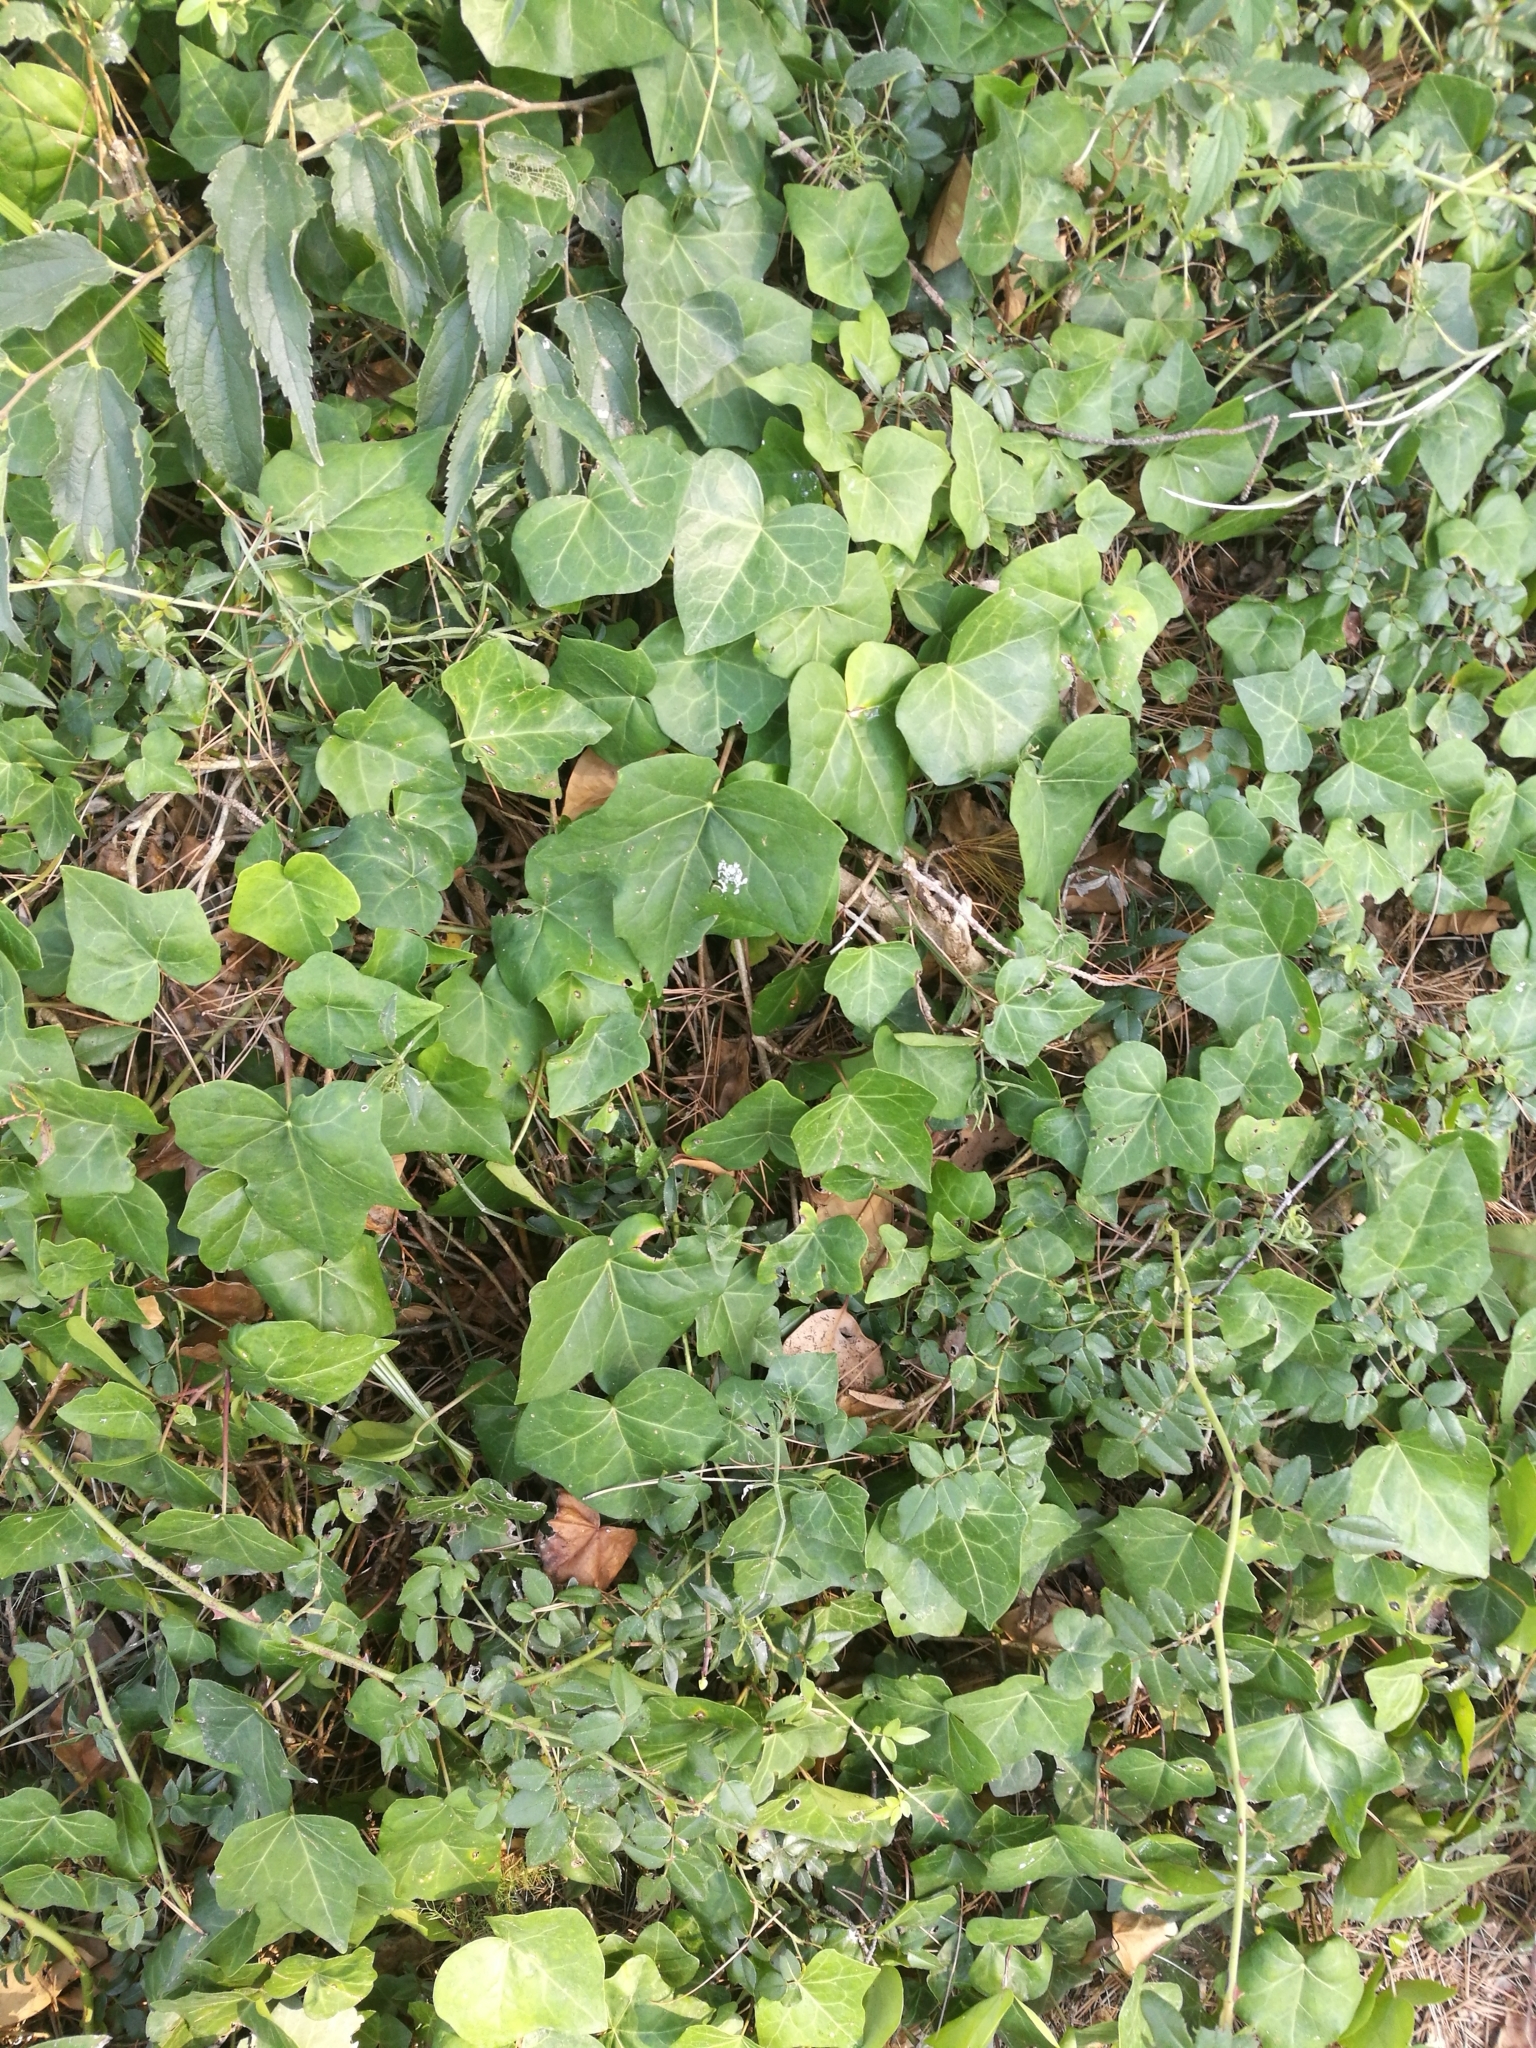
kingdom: Plantae
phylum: Tracheophyta
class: Magnoliopsida
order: Apiales
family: Araliaceae
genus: Hedera
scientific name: Hedera helix
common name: Ivy
